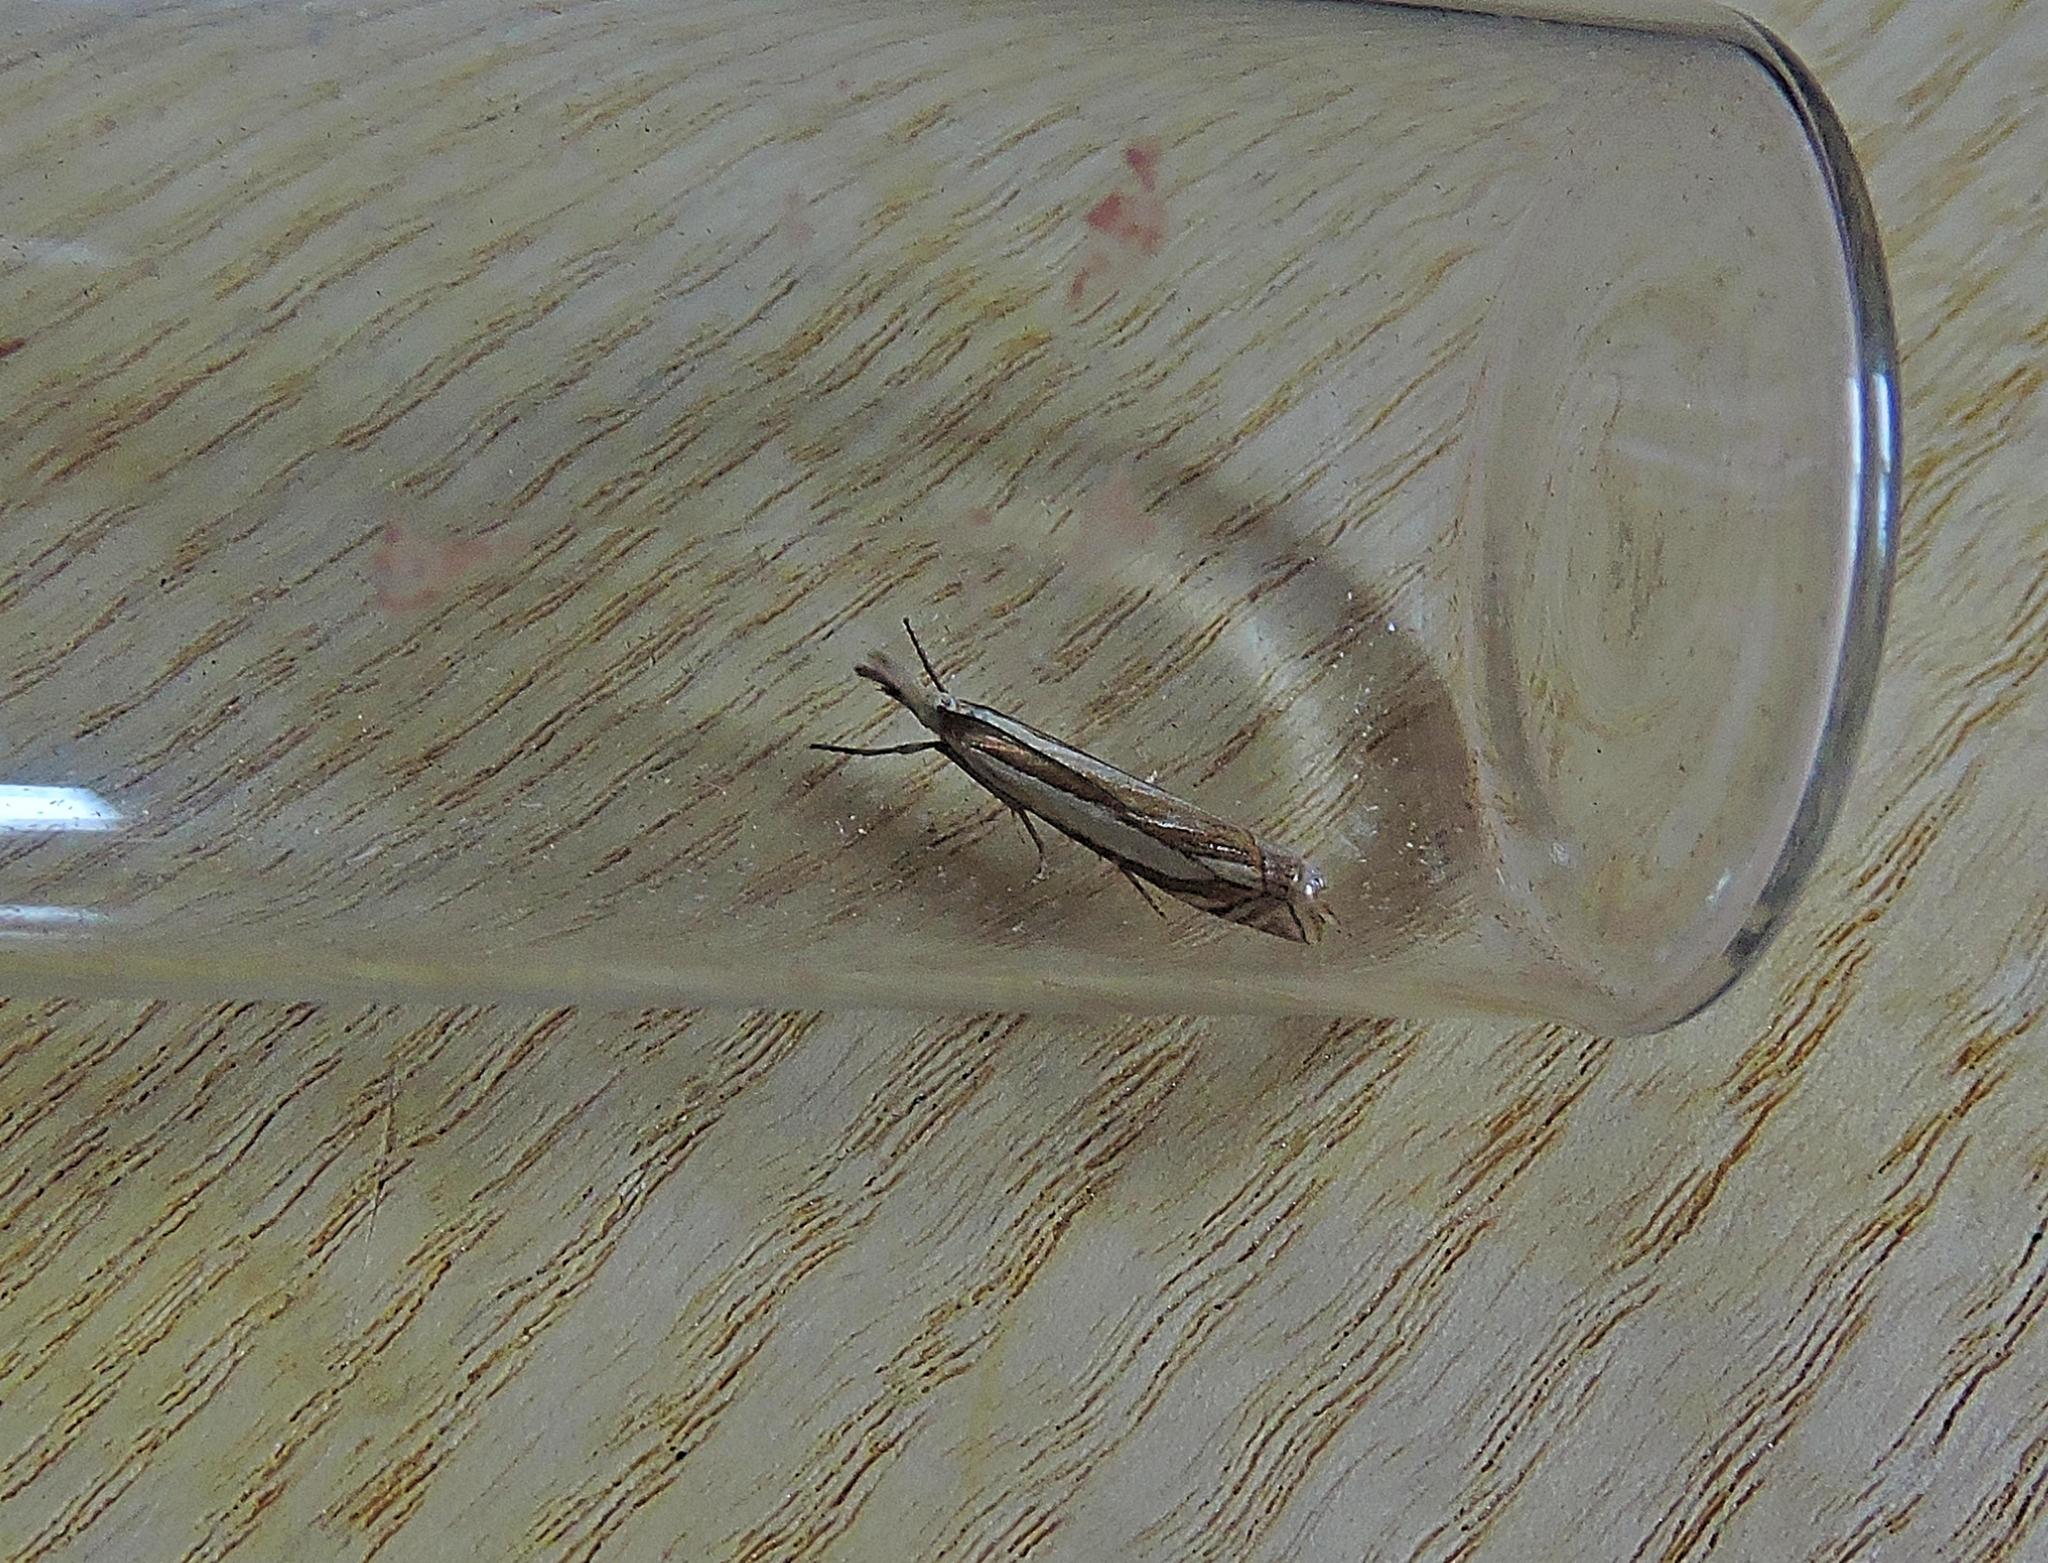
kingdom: Animalia
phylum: Arthropoda
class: Insecta
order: Lepidoptera
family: Crambidae
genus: Crambus
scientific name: Crambus pascuella
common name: Inlaid grass-veneer
